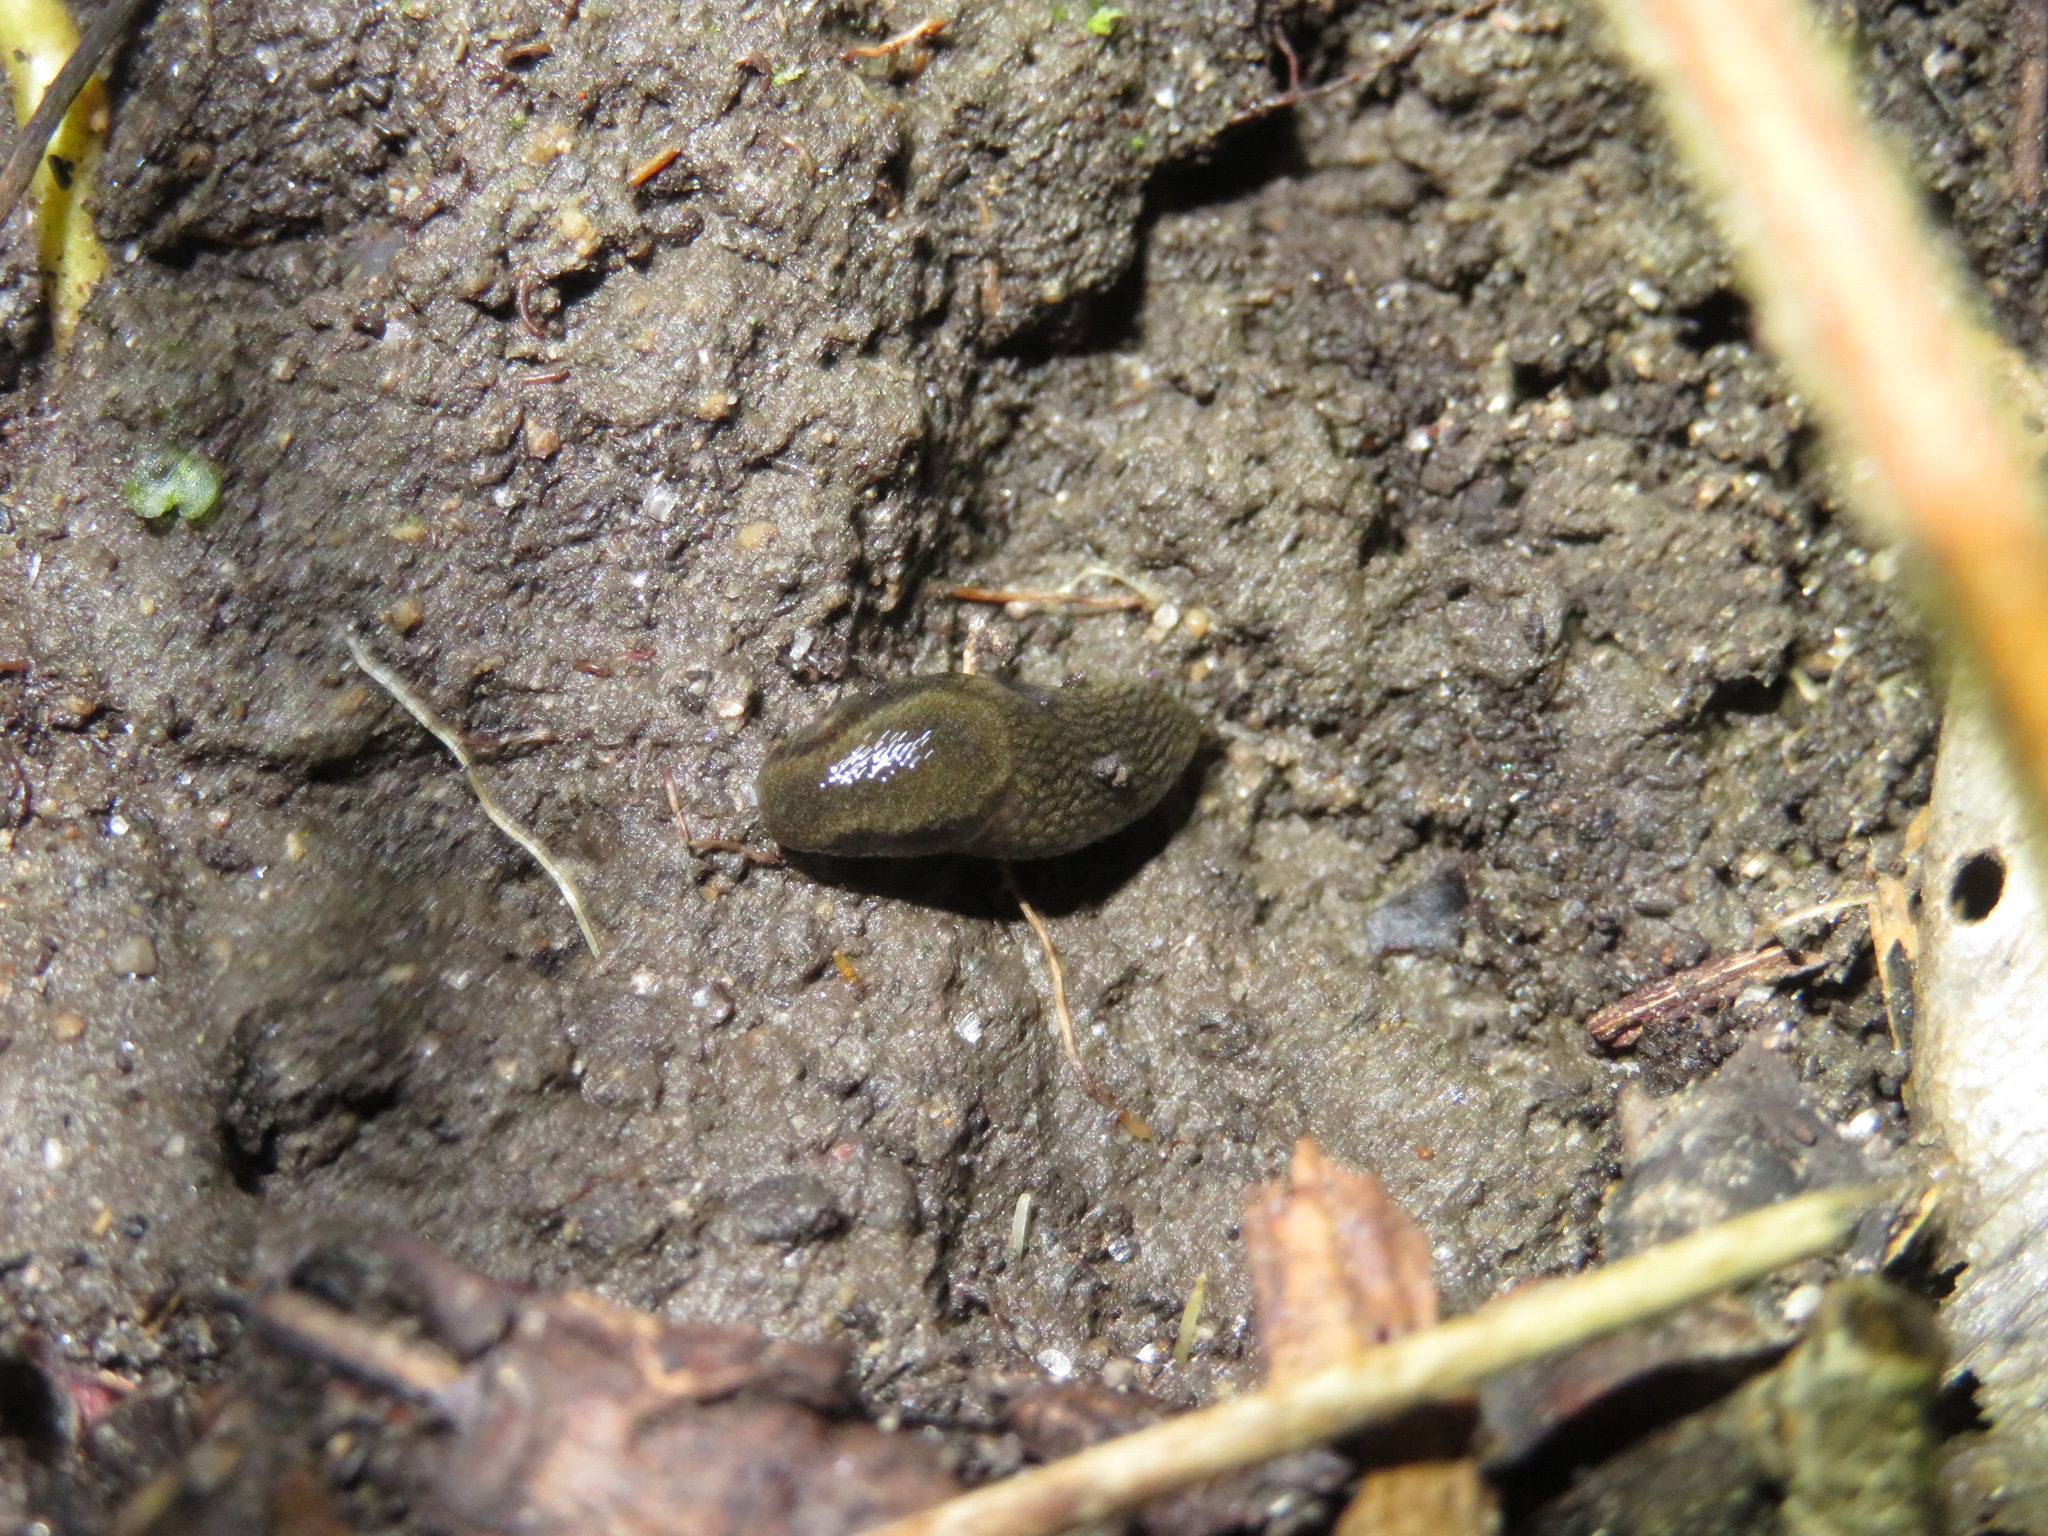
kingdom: Animalia
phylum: Mollusca
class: Gastropoda
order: Stylommatophora
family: Arionidae
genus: Kobeltia
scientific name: Kobeltia
